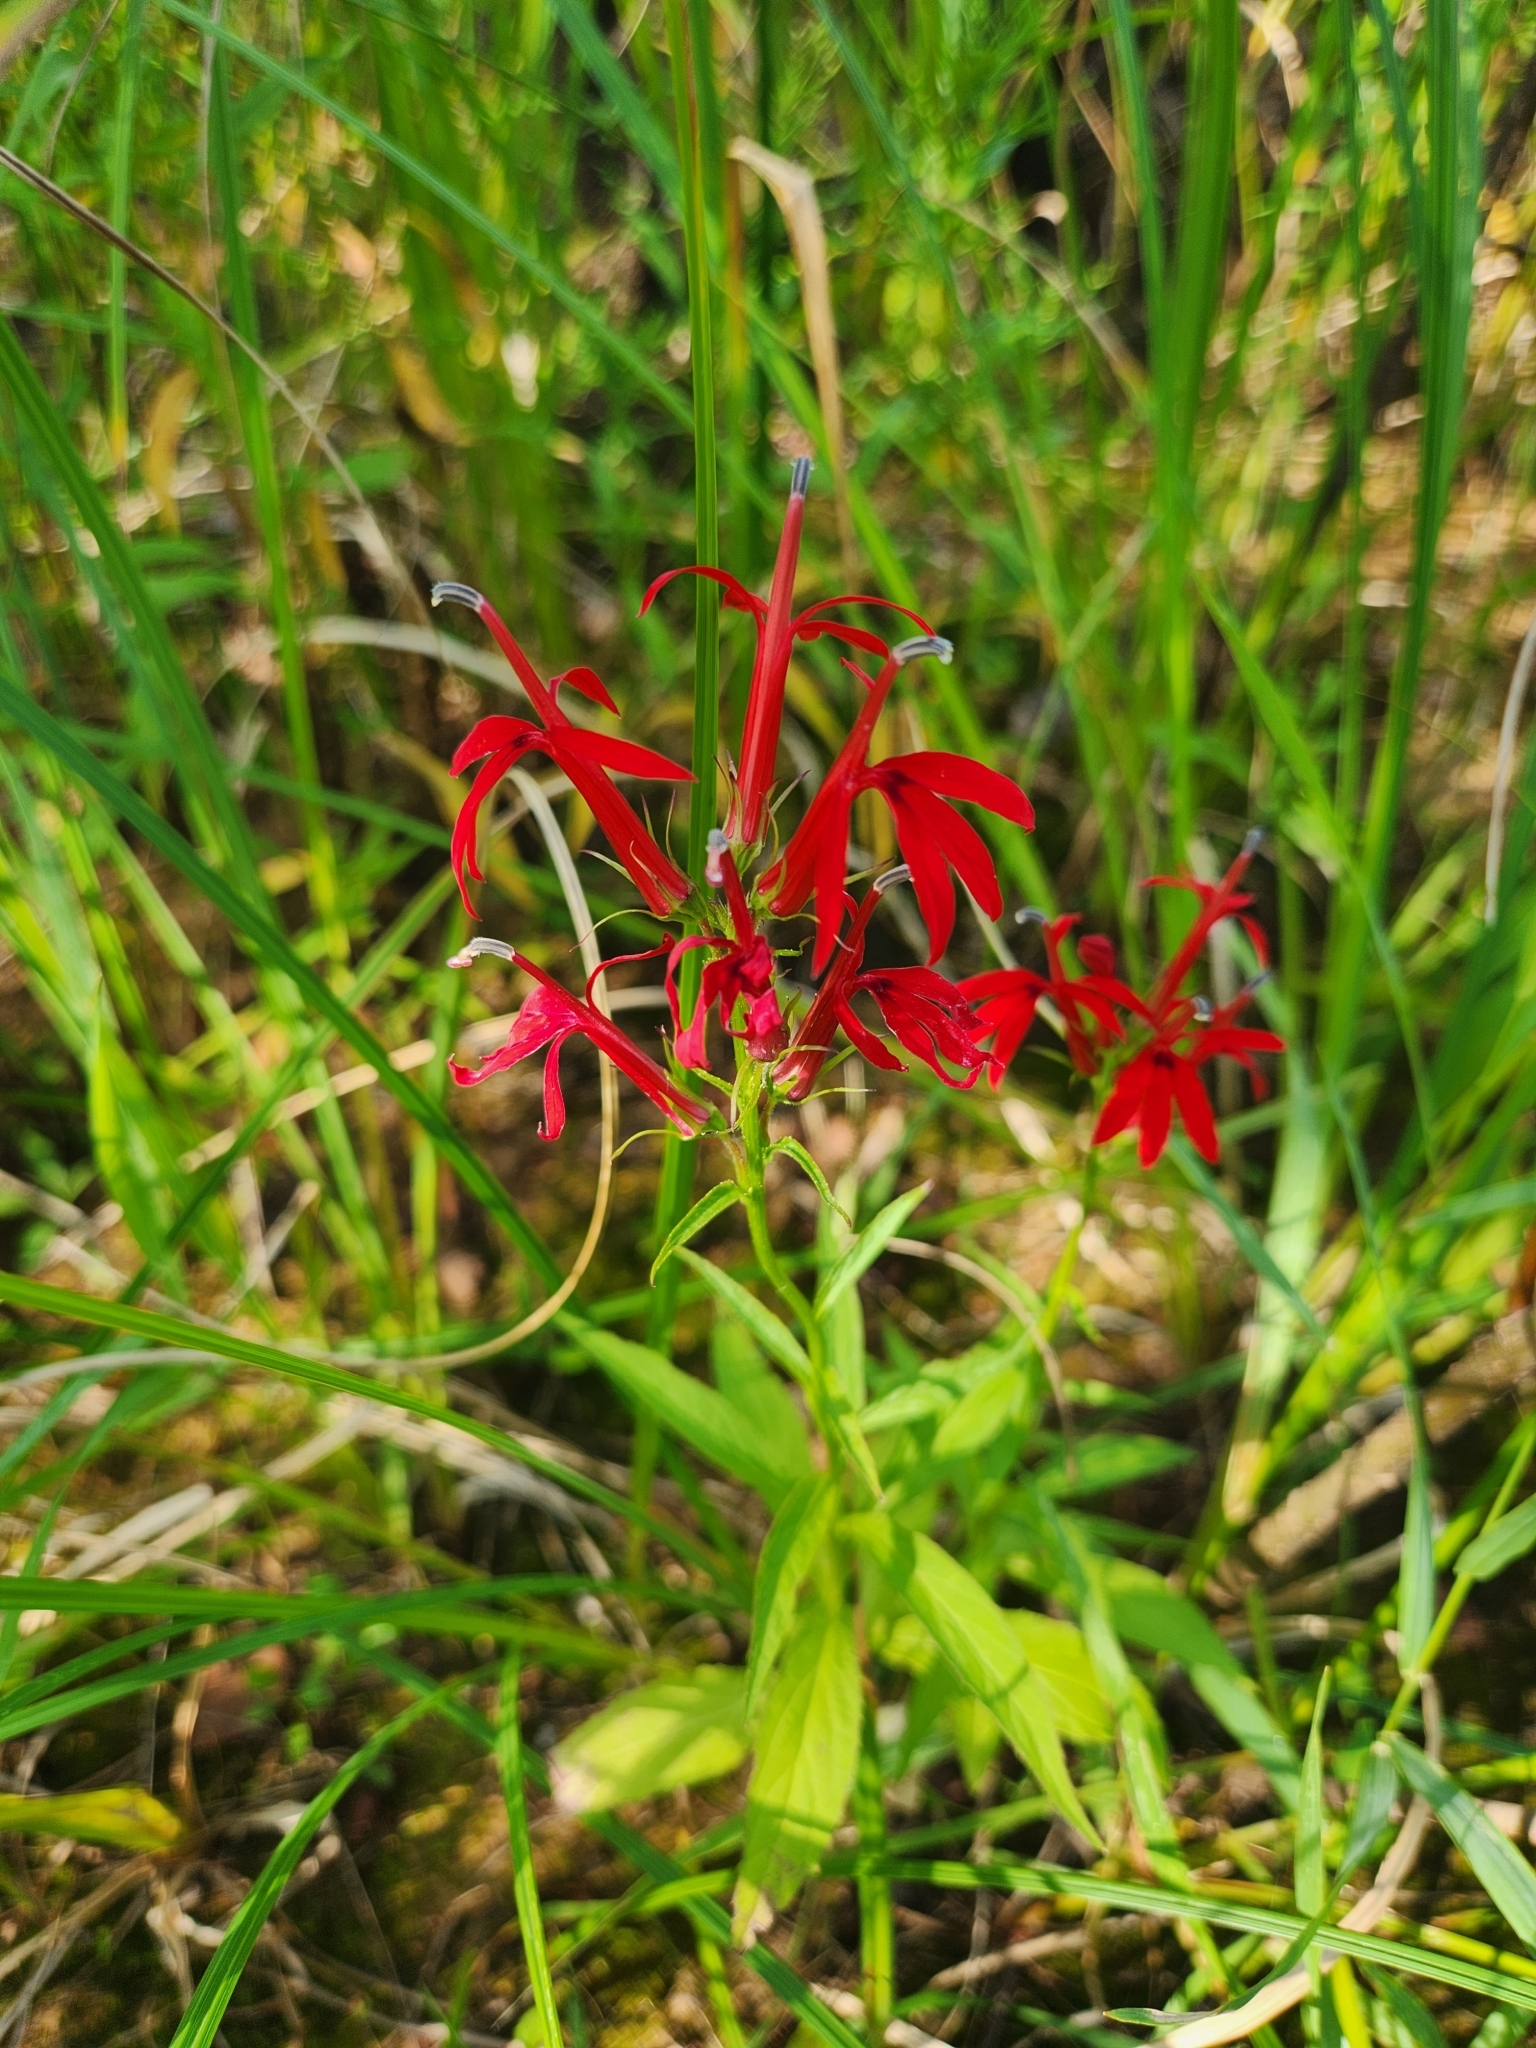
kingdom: Plantae
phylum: Tracheophyta
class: Magnoliopsida
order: Asterales
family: Campanulaceae
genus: Lobelia
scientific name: Lobelia cardinalis
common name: Cardinal flower
